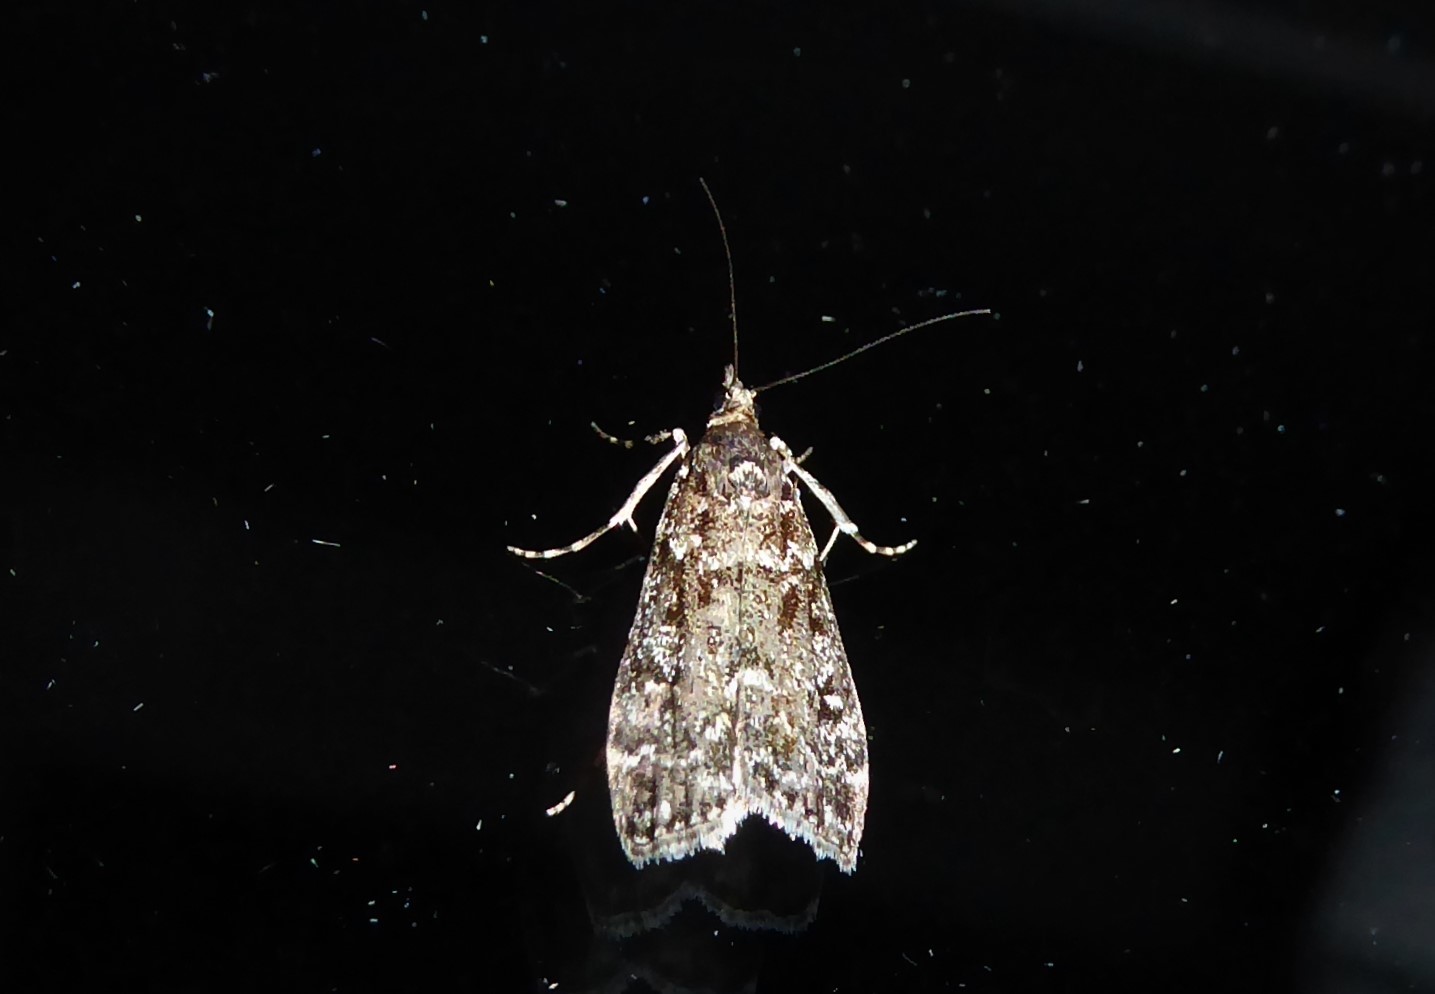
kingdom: Animalia
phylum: Arthropoda
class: Insecta
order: Lepidoptera
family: Crambidae
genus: Eudonia
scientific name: Eudonia philerga
